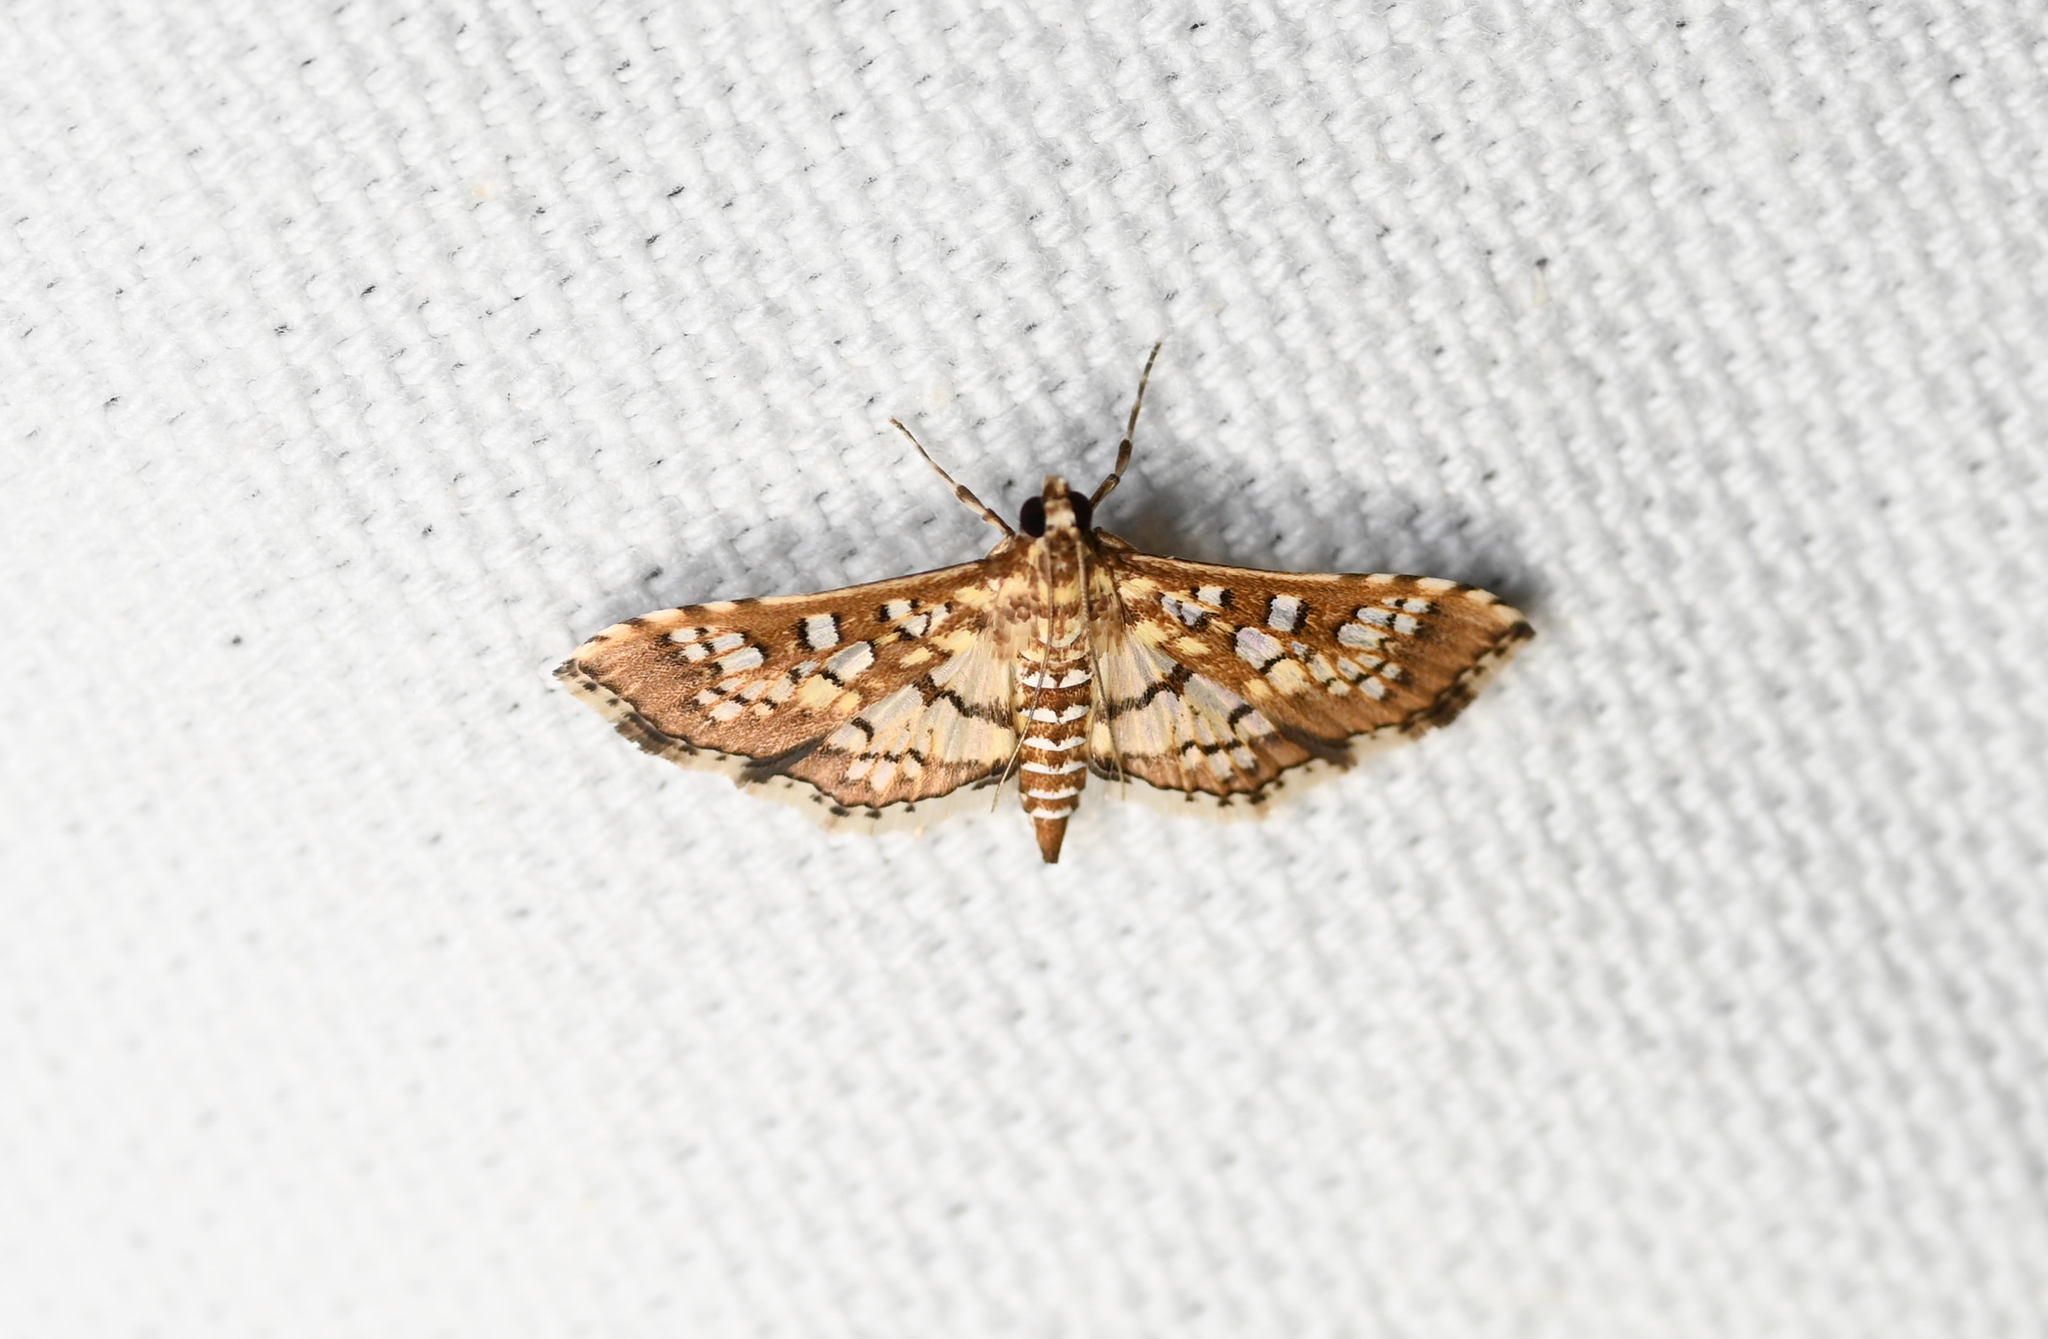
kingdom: Animalia
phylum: Arthropoda
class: Insecta
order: Lepidoptera
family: Crambidae
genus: Samea
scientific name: Samea ecclesialis
